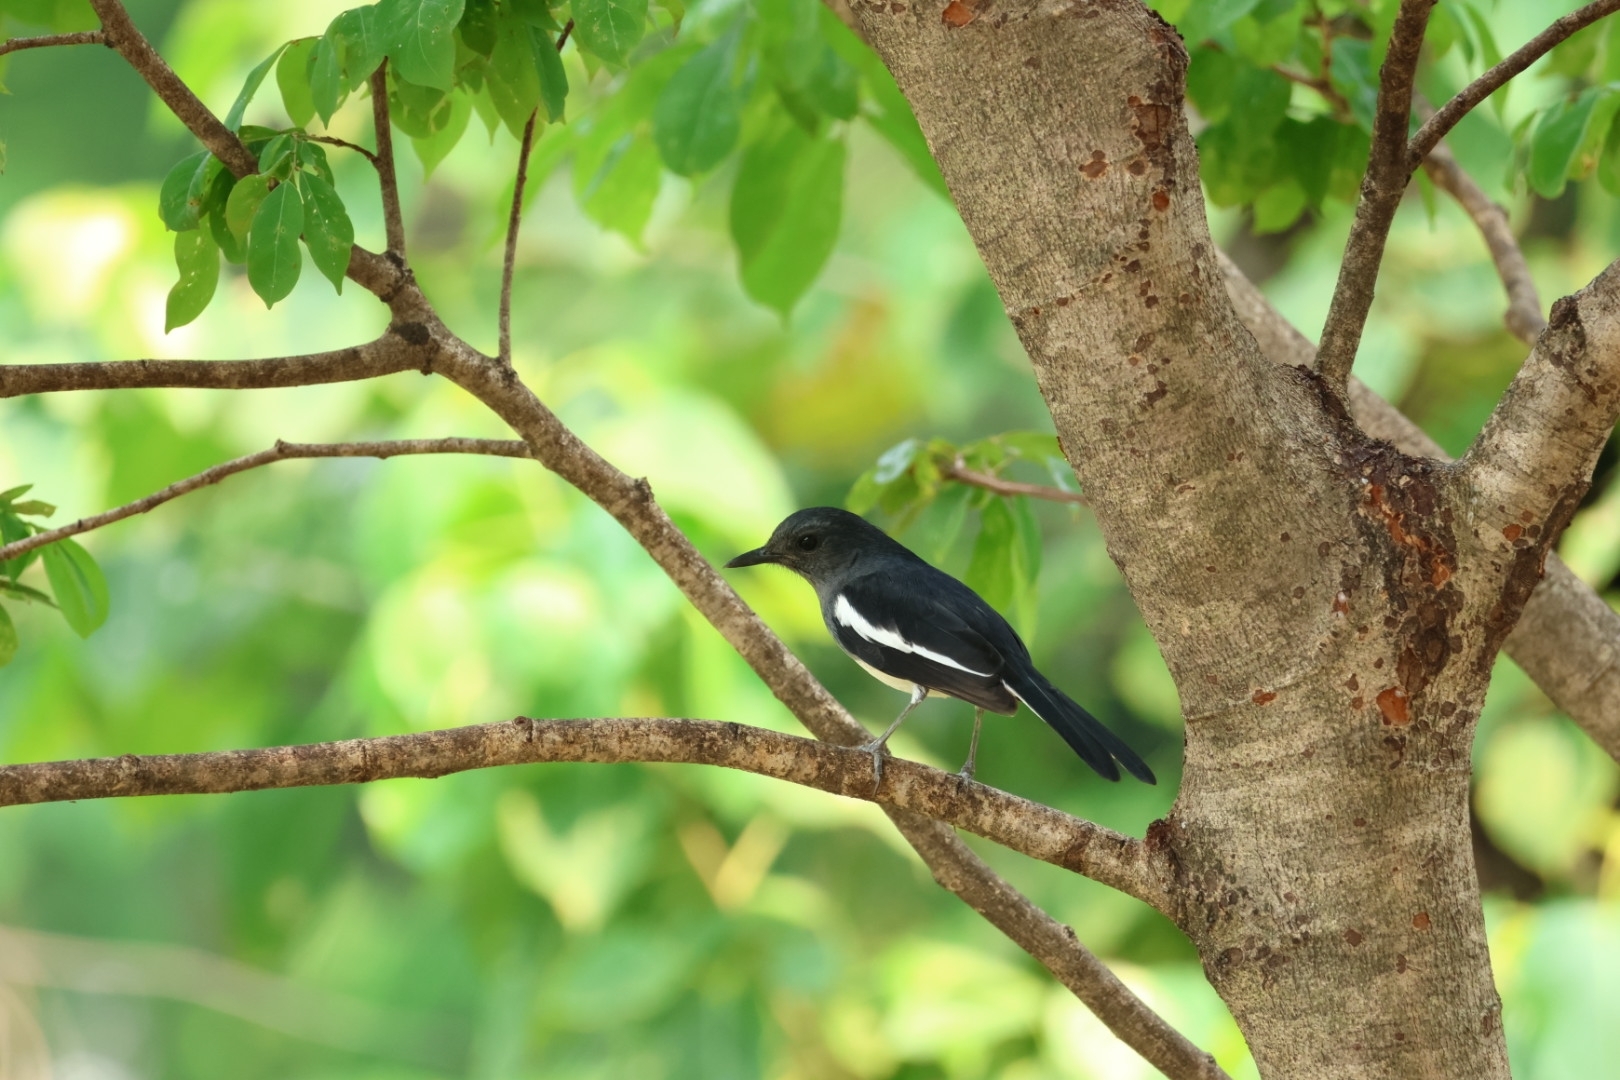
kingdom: Animalia
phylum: Chordata
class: Aves
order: Passeriformes
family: Muscicapidae
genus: Copsychus
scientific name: Copsychus saularis
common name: Oriental magpie-robin
